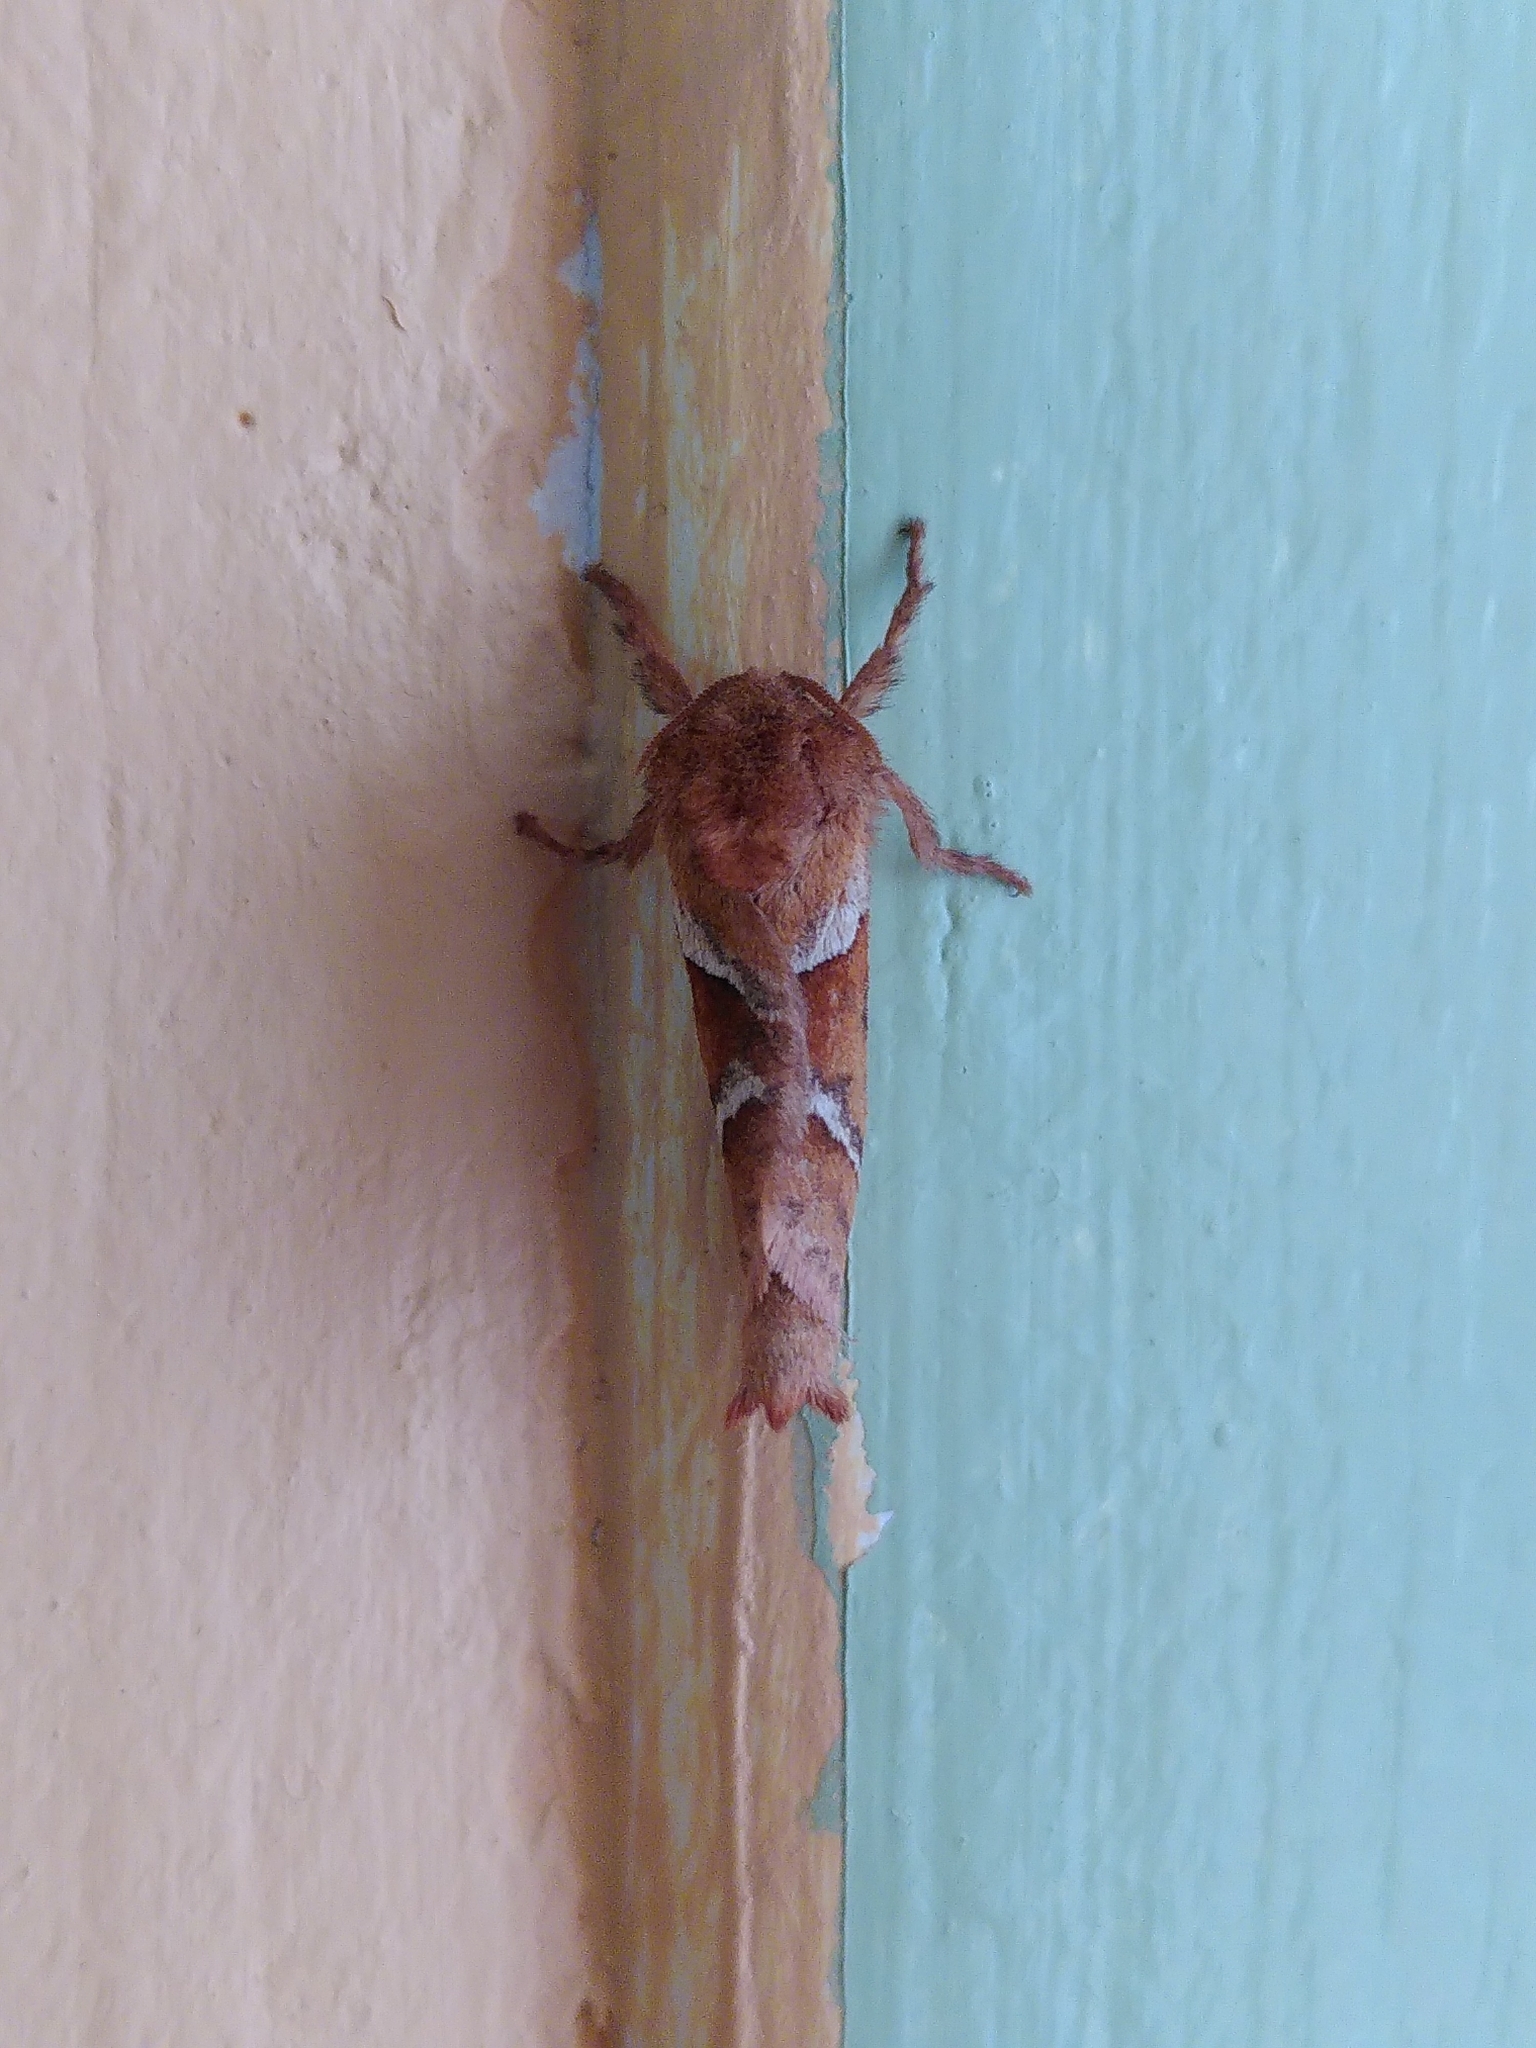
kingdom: Animalia
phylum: Arthropoda
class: Insecta
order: Lepidoptera
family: Hepialidae
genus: Triodia
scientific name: Triodia sylvina
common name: Orange swift
